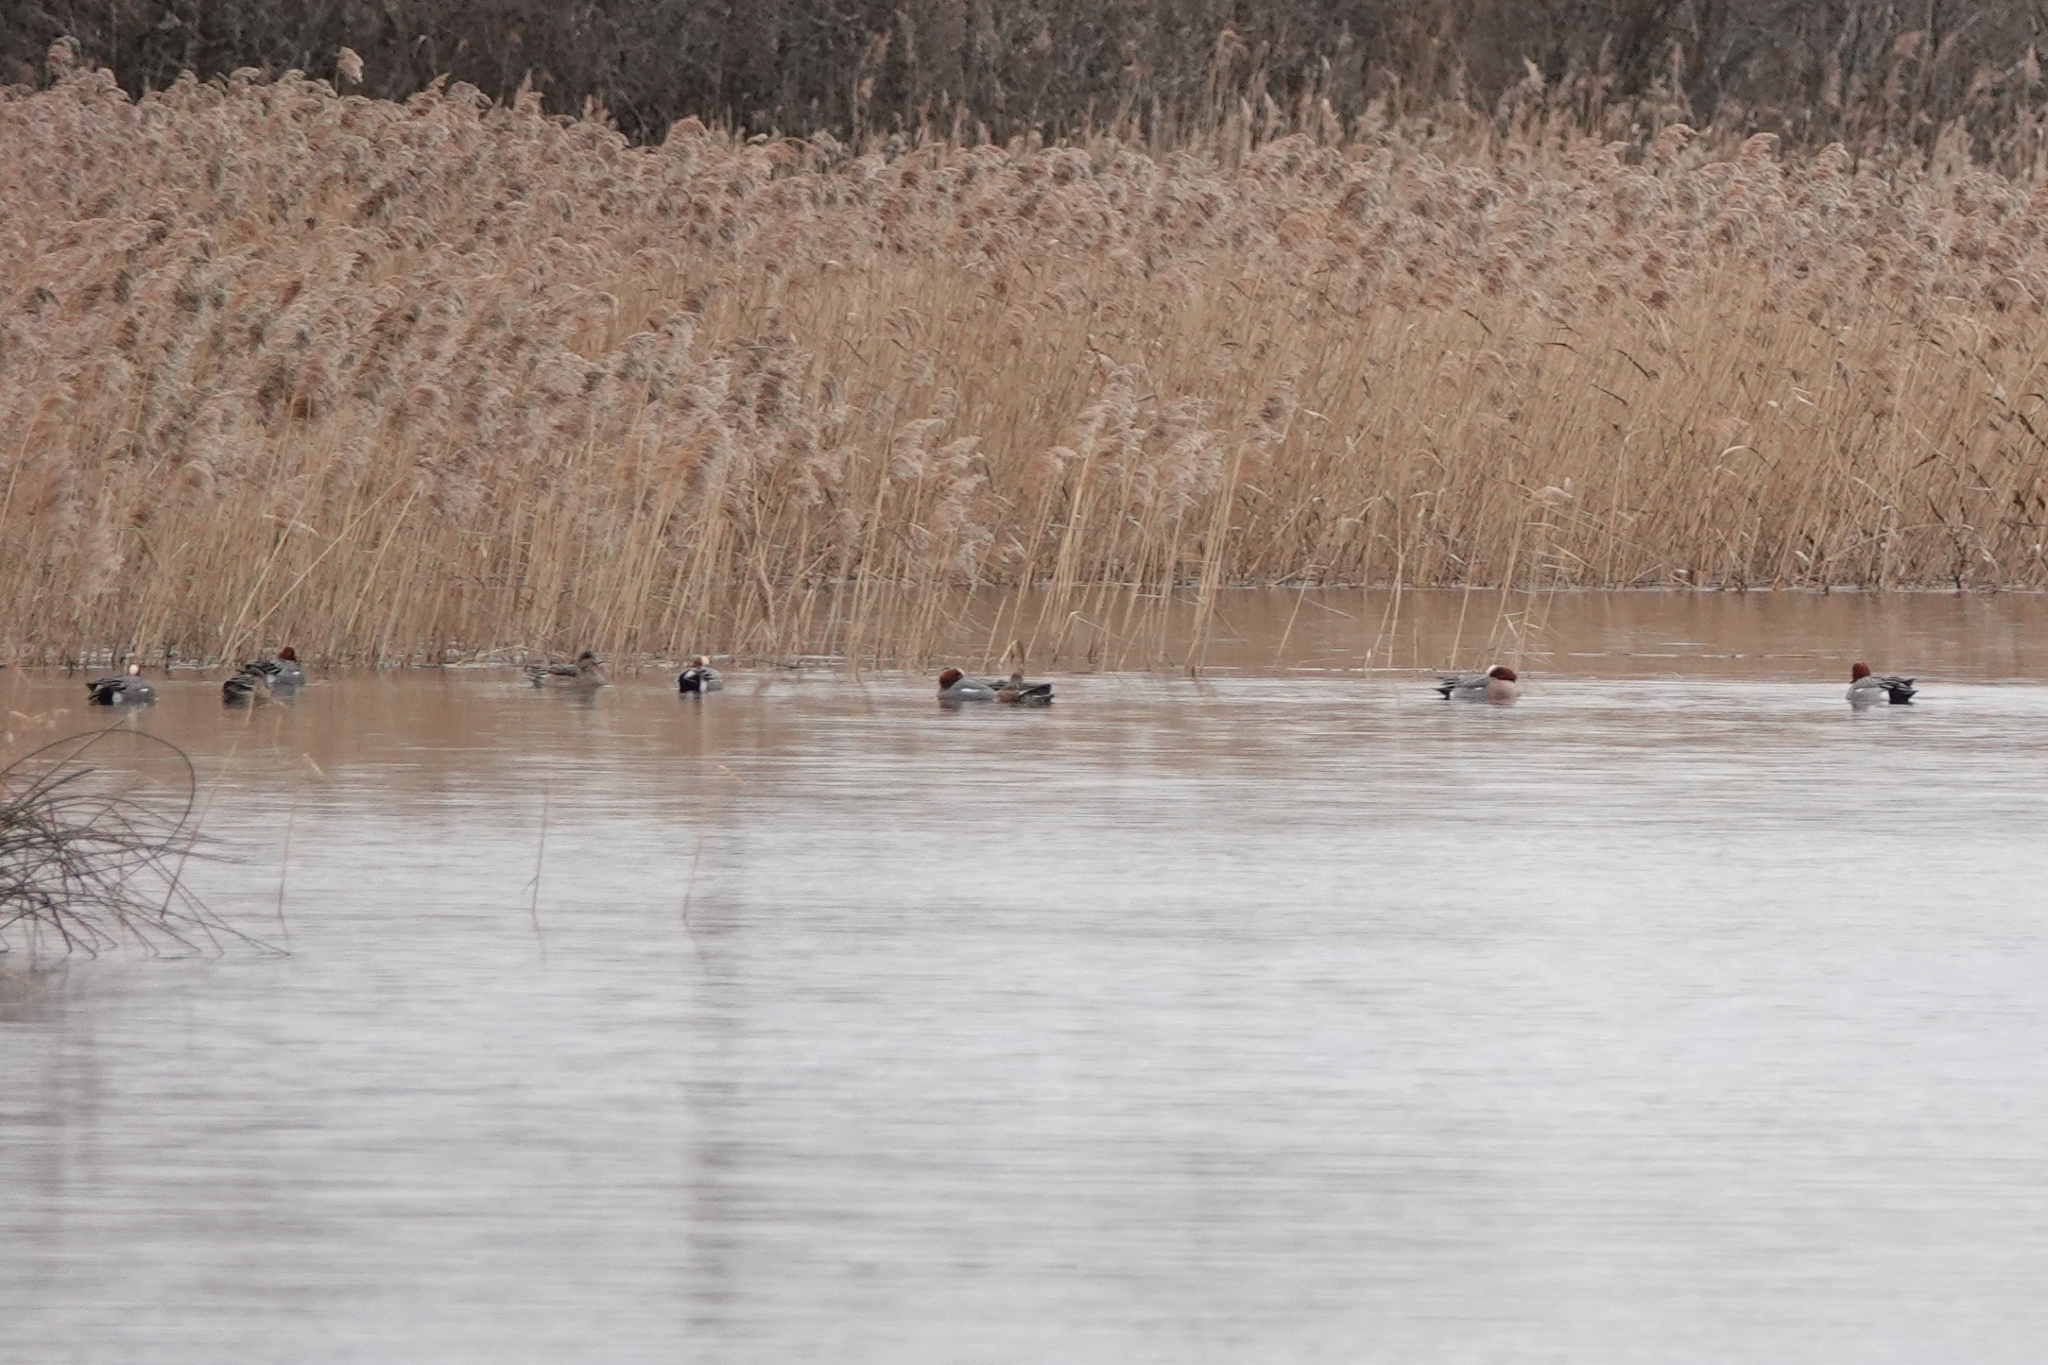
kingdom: Animalia
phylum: Chordata
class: Aves
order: Anseriformes
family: Anatidae
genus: Mareca
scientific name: Mareca penelope
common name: Eurasian wigeon
